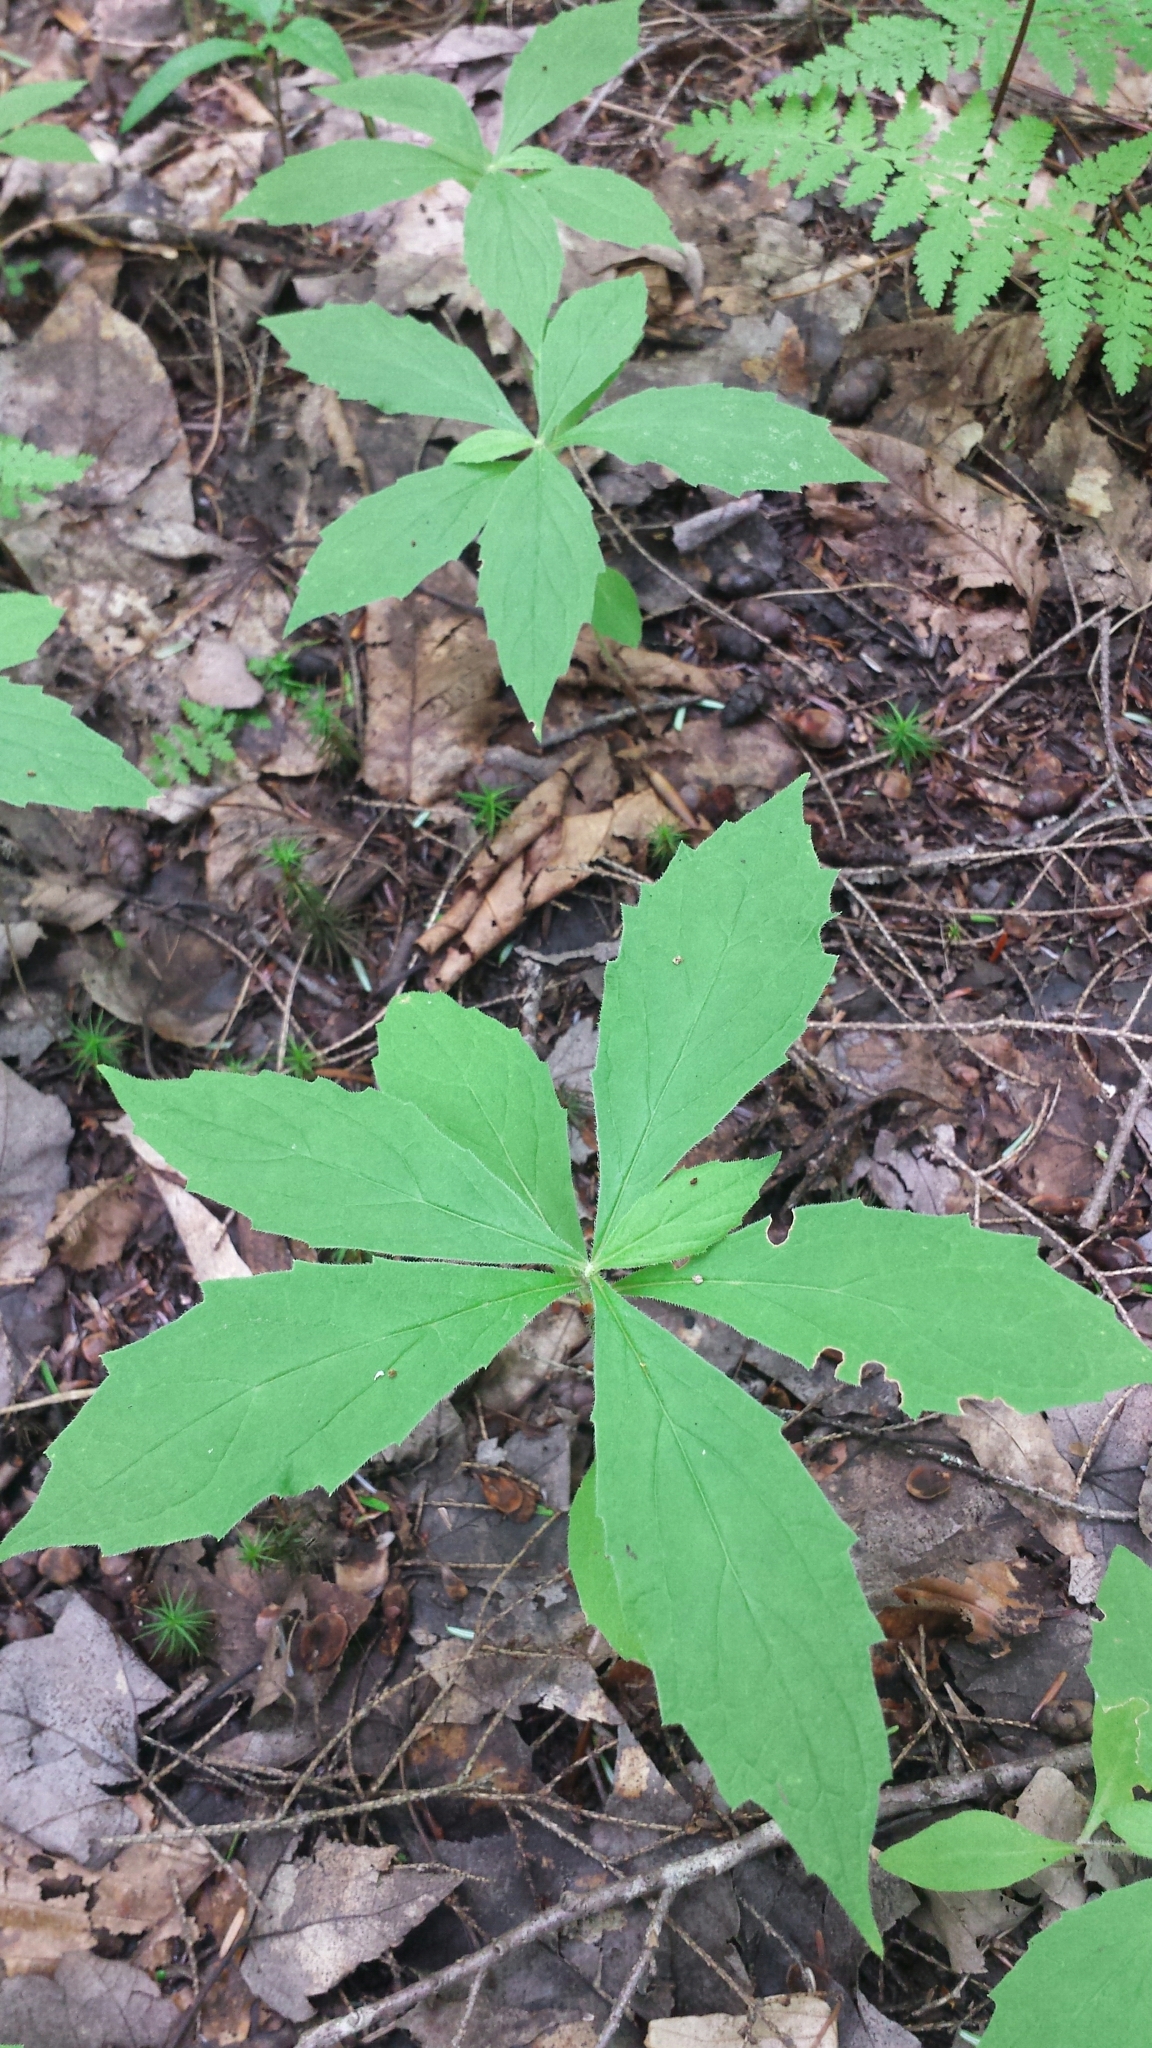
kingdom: Plantae
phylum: Tracheophyta
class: Magnoliopsida
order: Asterales
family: Asteraceae
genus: Oclemena
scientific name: Oclemena acuminata
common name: Mountain aster
